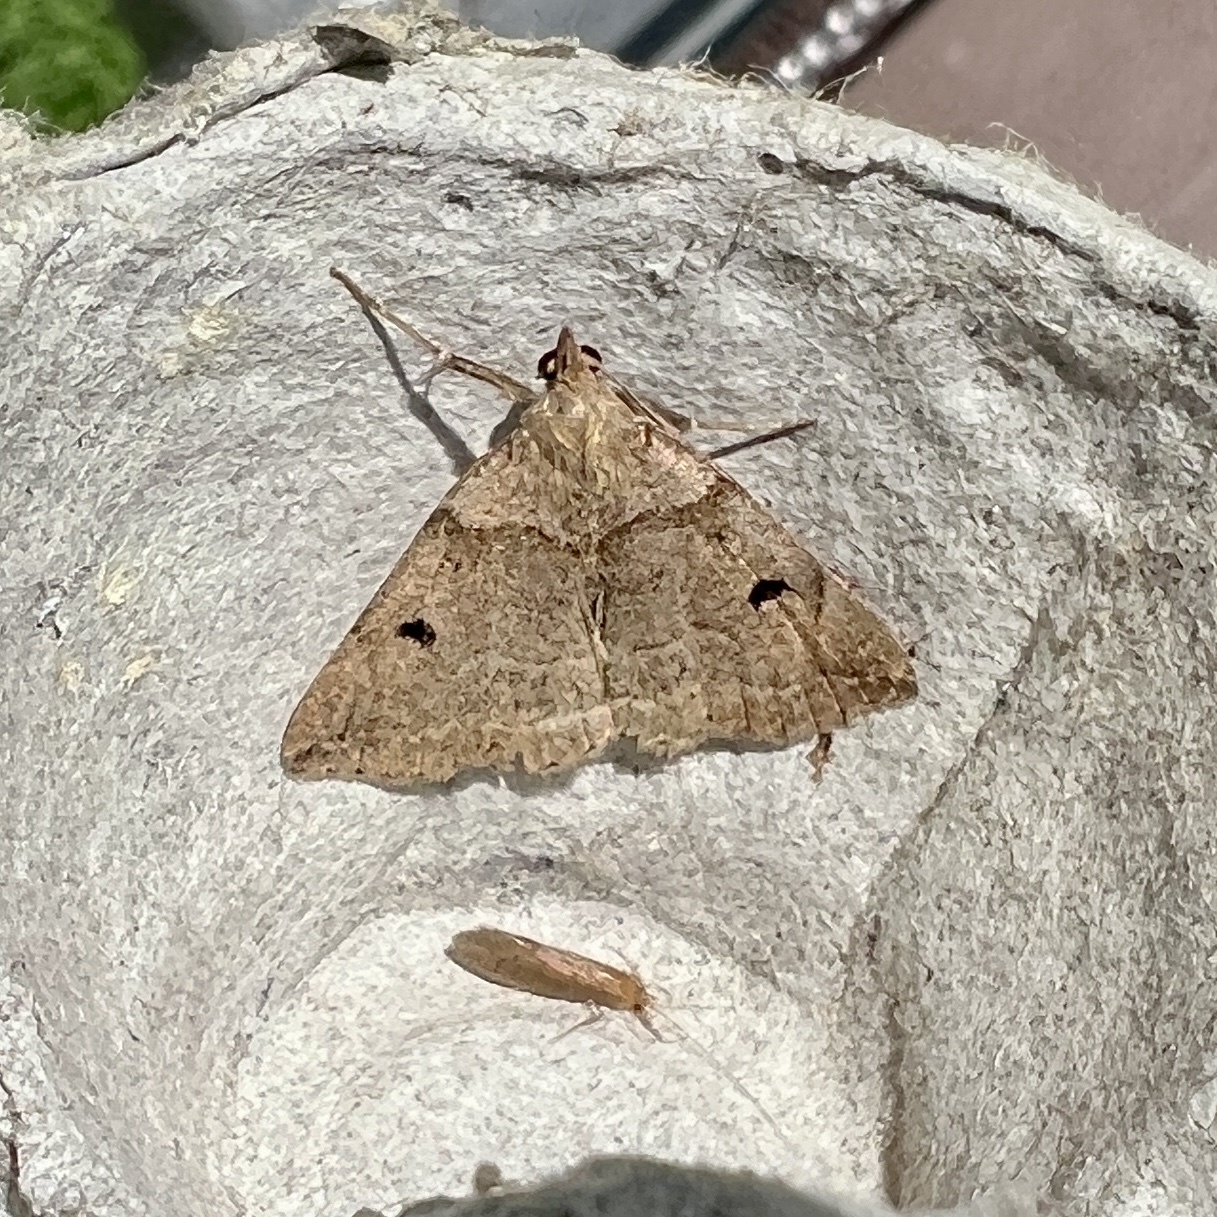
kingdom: Animalia
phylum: Arthropoda
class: Insecta
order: Lepidoptera
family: Erebidae
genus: Zanclognatha
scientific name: Zanclognatha laevigata
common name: Variable fan-foot
